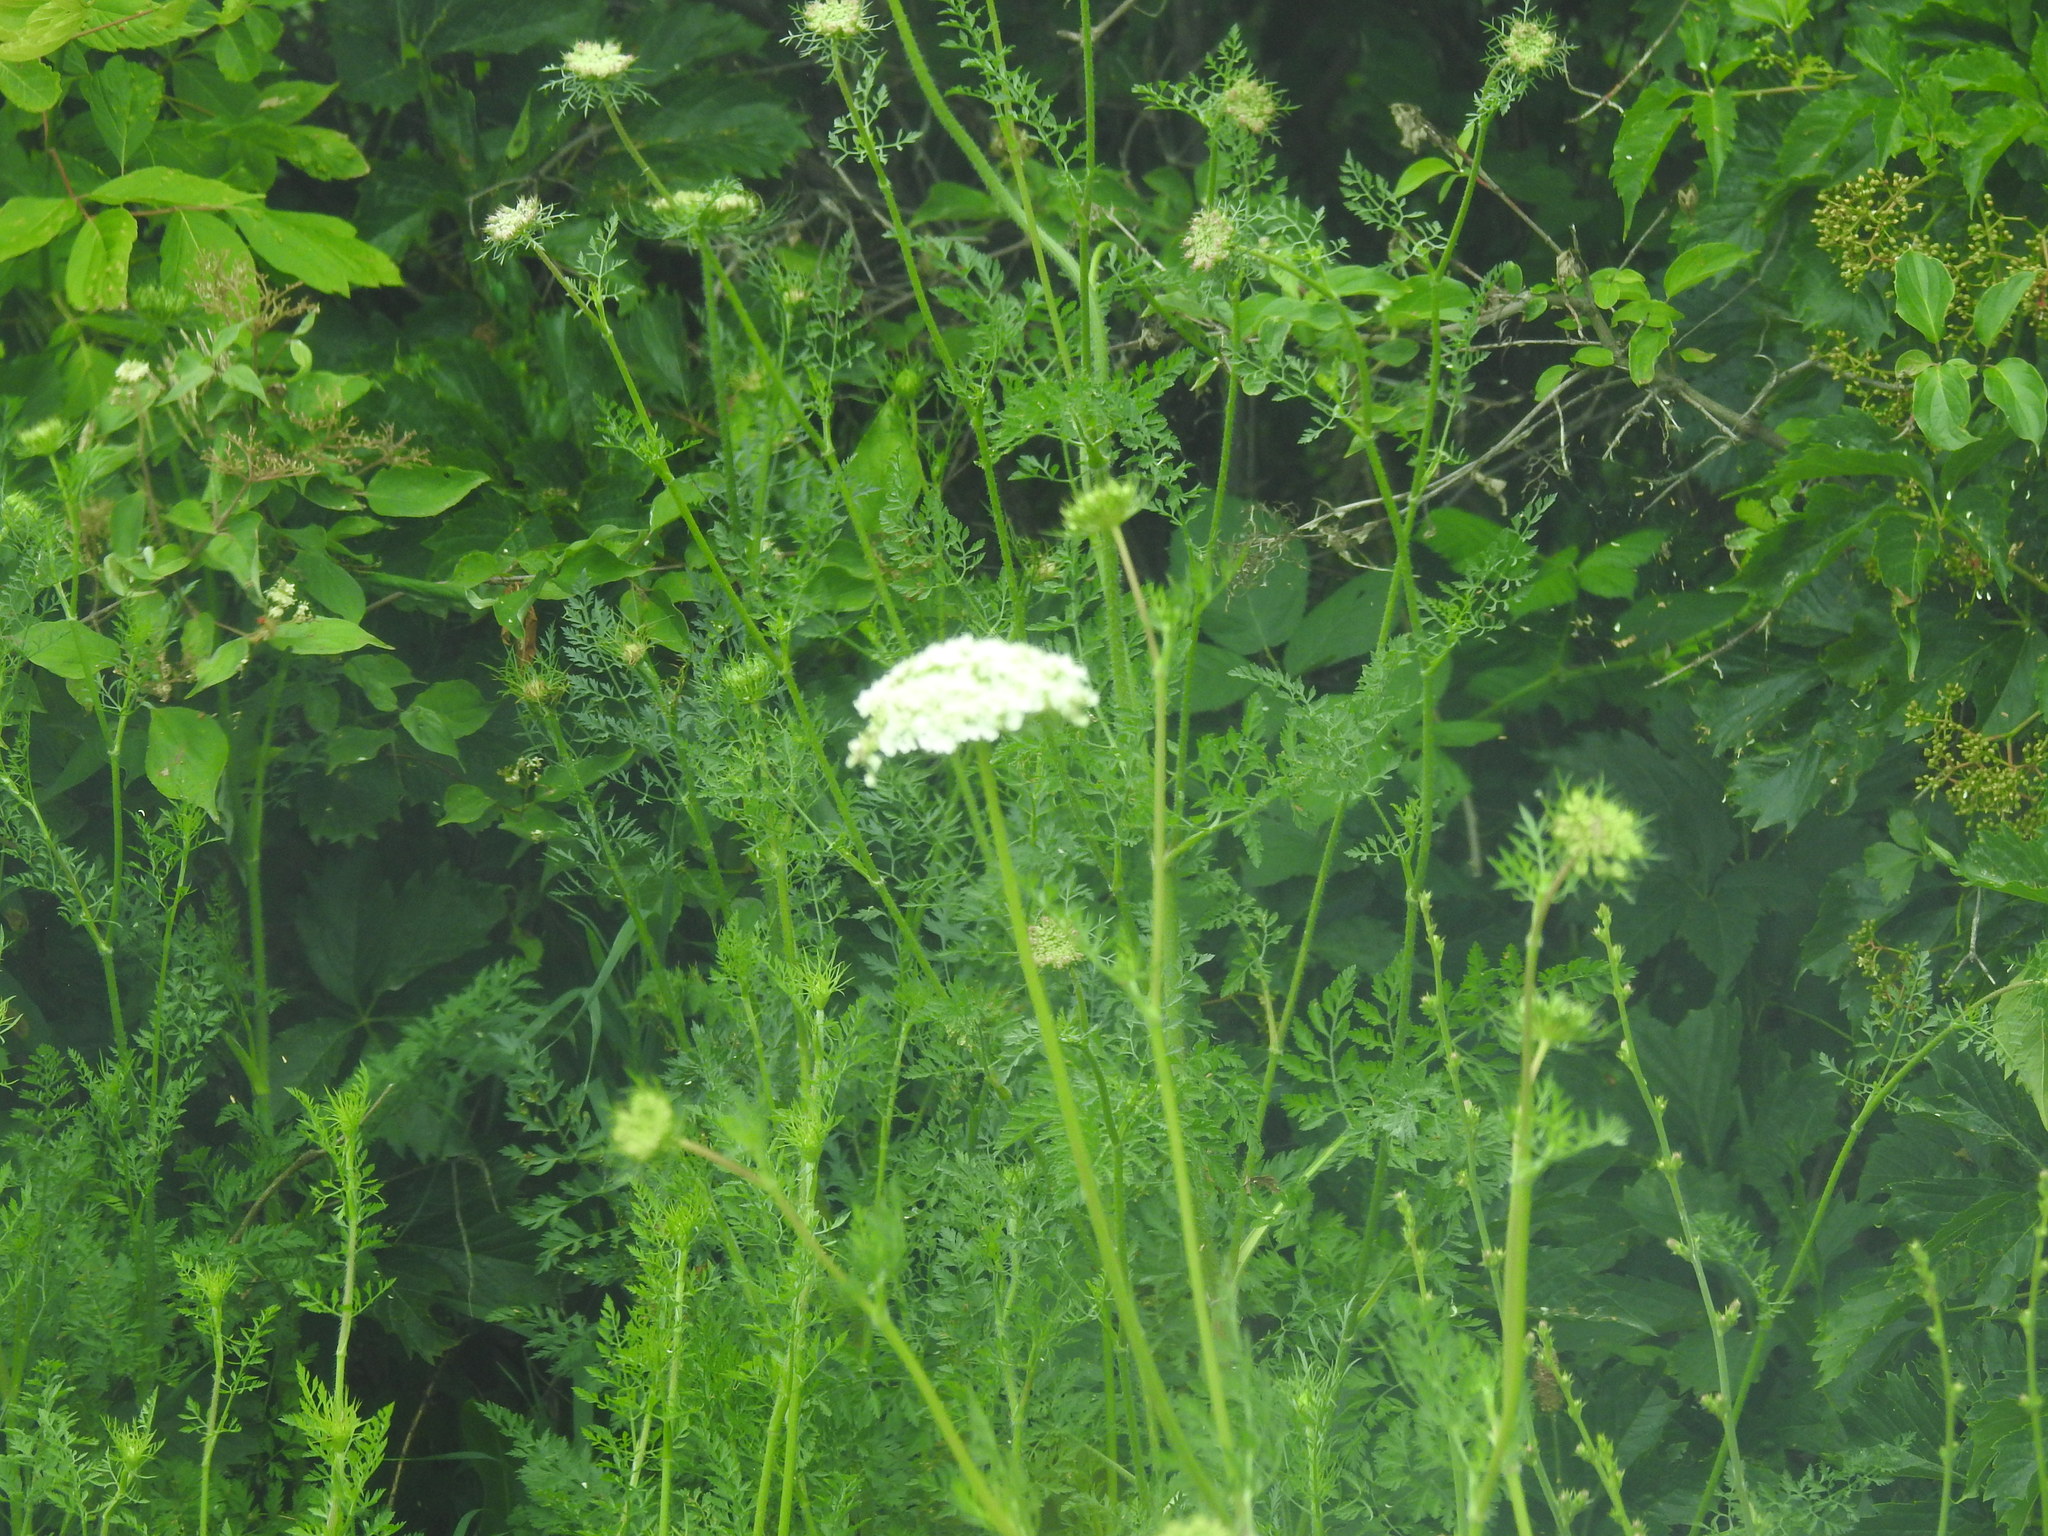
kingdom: Plantae
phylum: Tracheophyta
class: Magnoliopsida
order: Asterales
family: Asteraceae
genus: Achillea
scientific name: Achillea millefolium
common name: Yarrow
